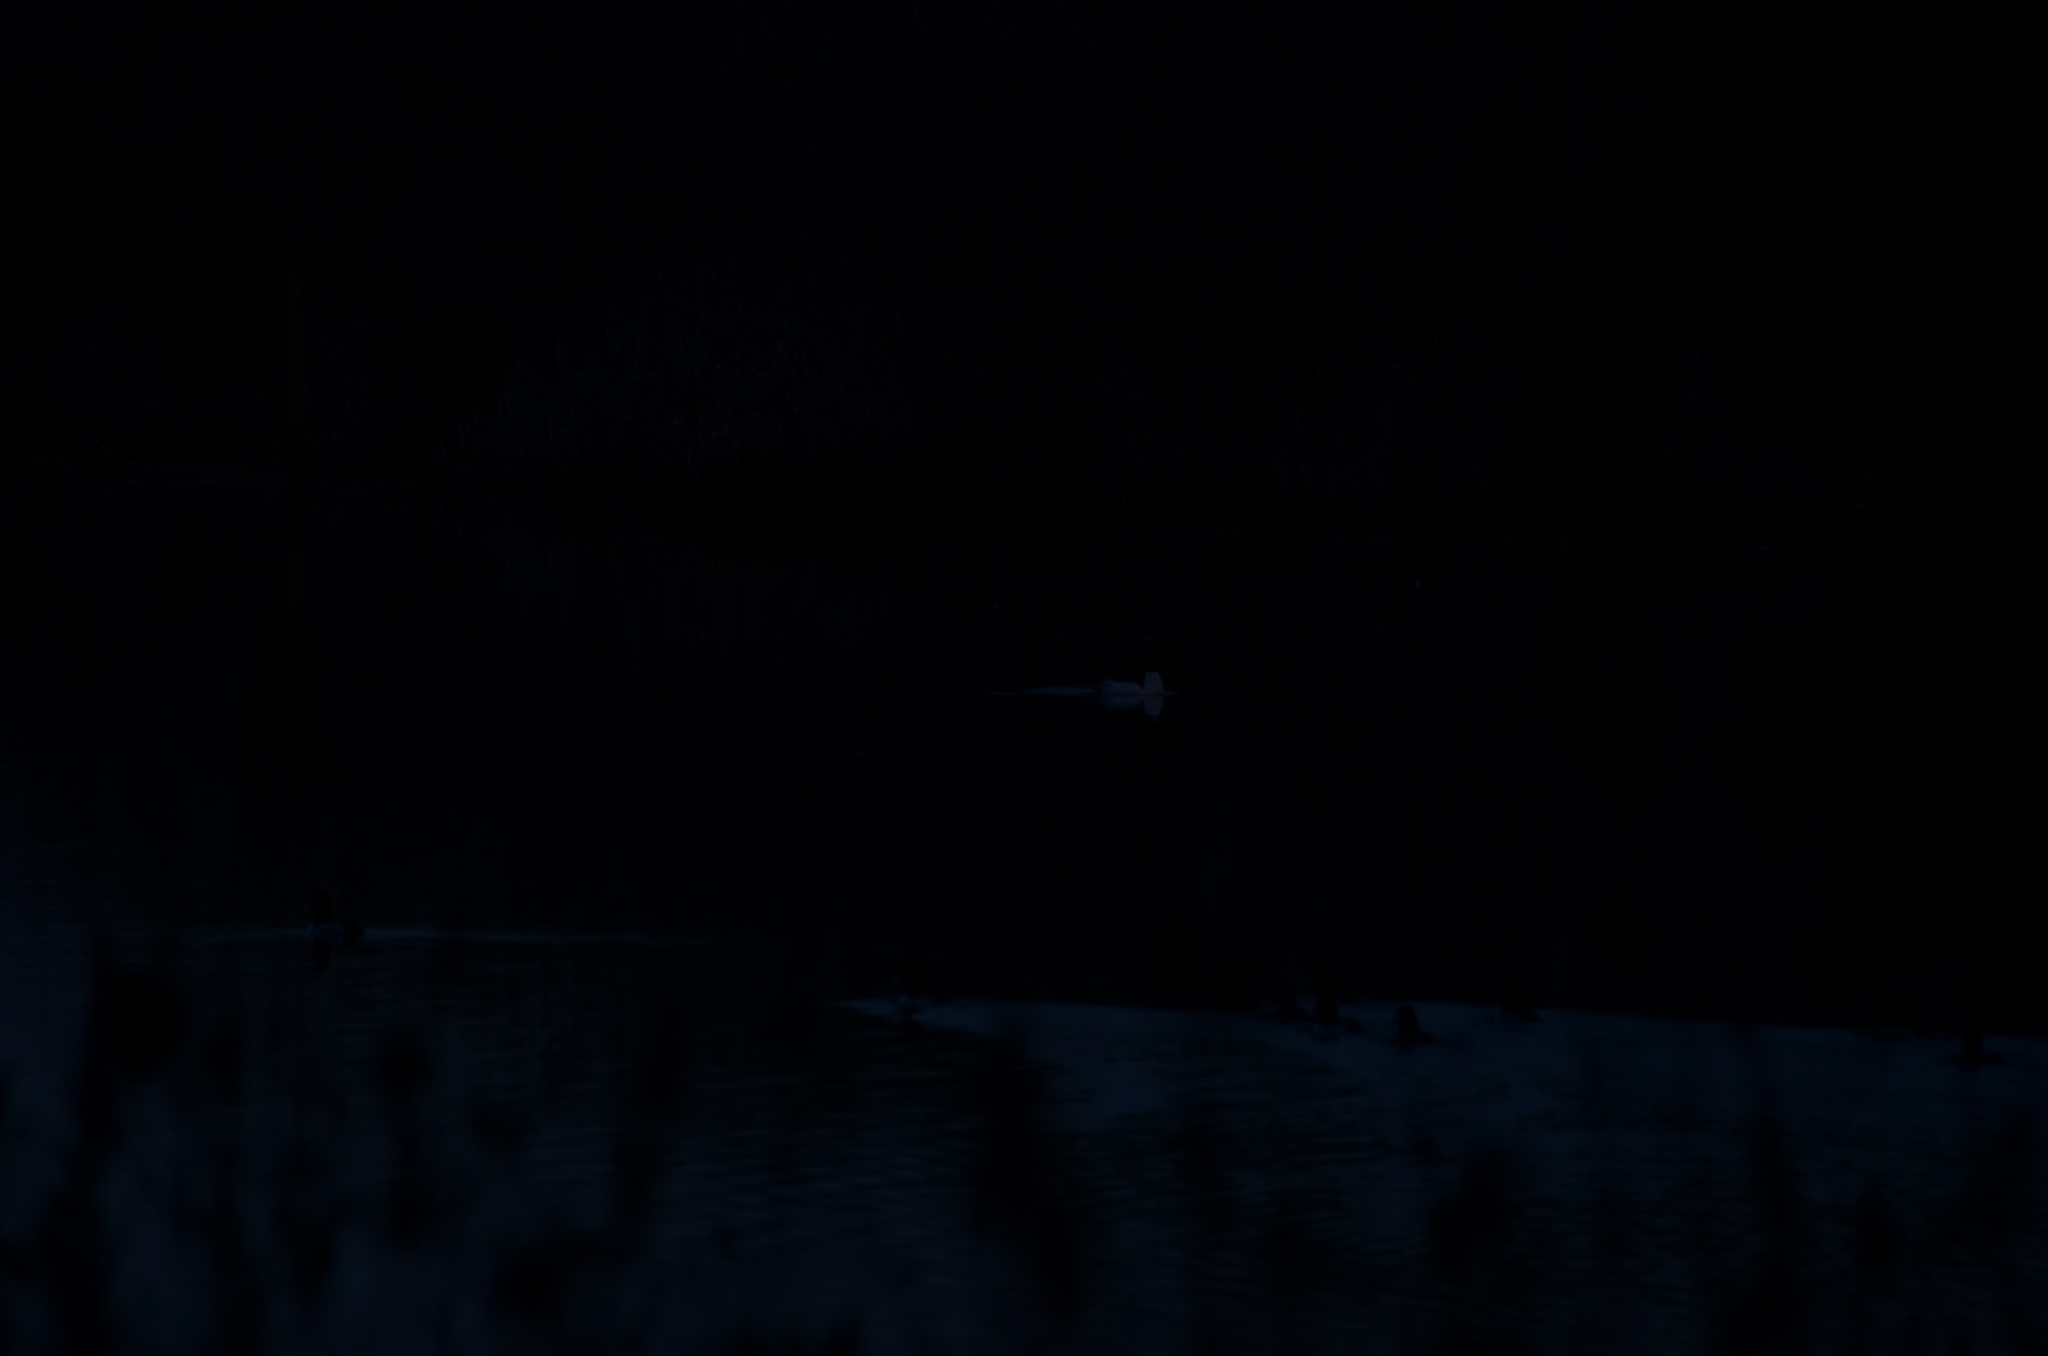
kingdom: Animalia
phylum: Chordata
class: Aves
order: Anseriformes
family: Anatidae
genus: Aythya
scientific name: Aythya collaris
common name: Ring-necked duck
